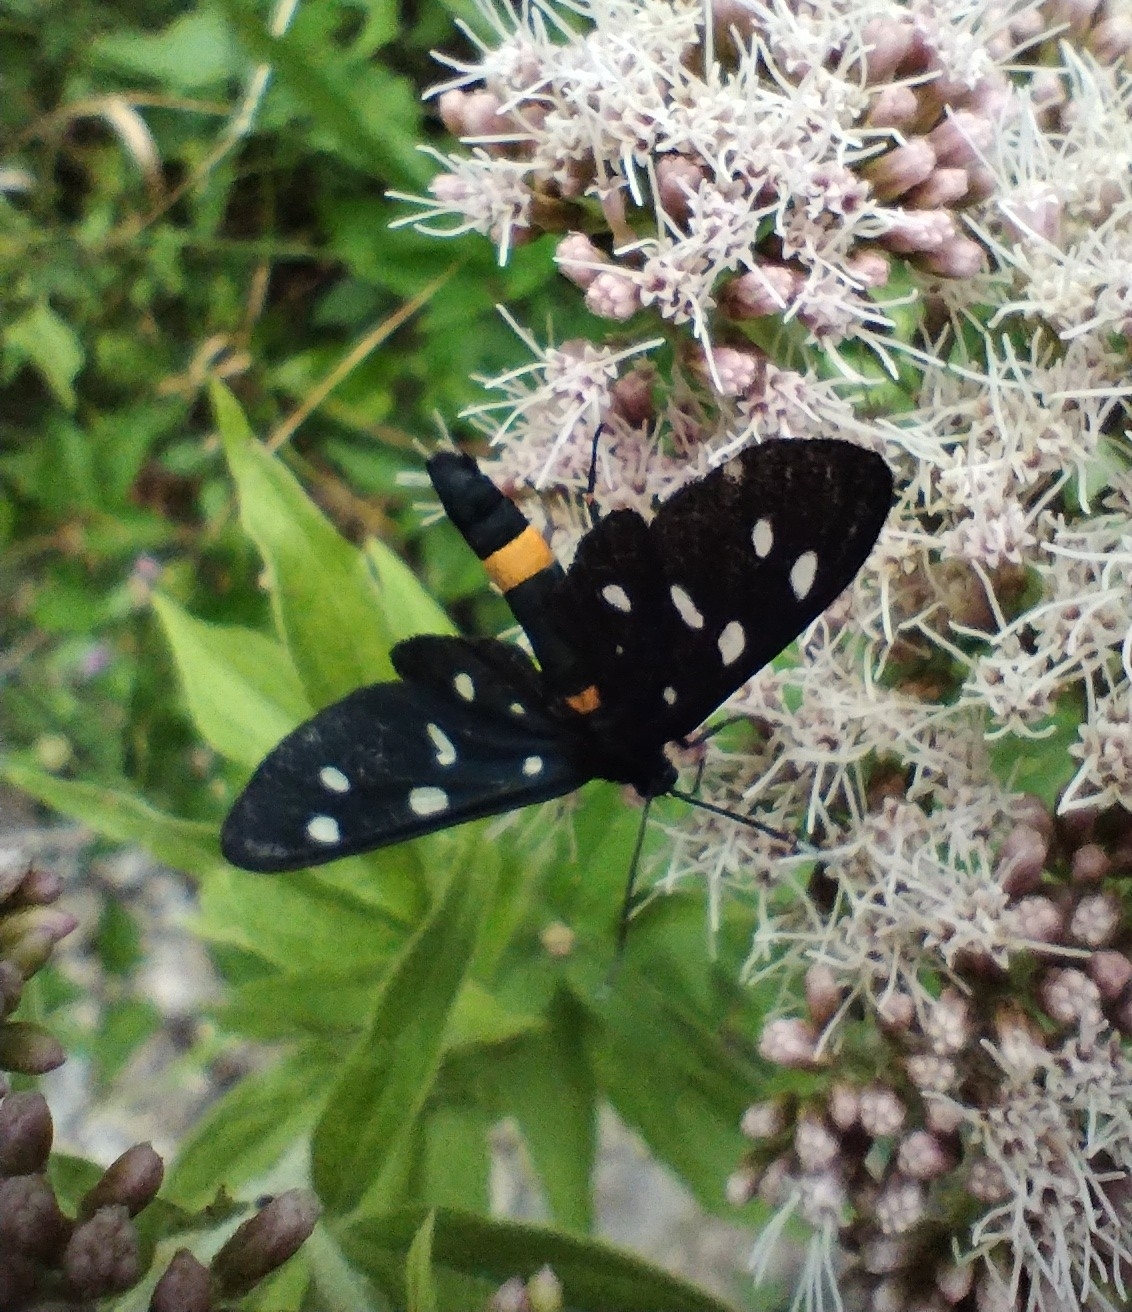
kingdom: Animalia
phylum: Arthropoda
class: Insecta
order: Lepidoptera
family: Erebidae
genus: Amata
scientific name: Amata phegea
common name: Nine-spotted
